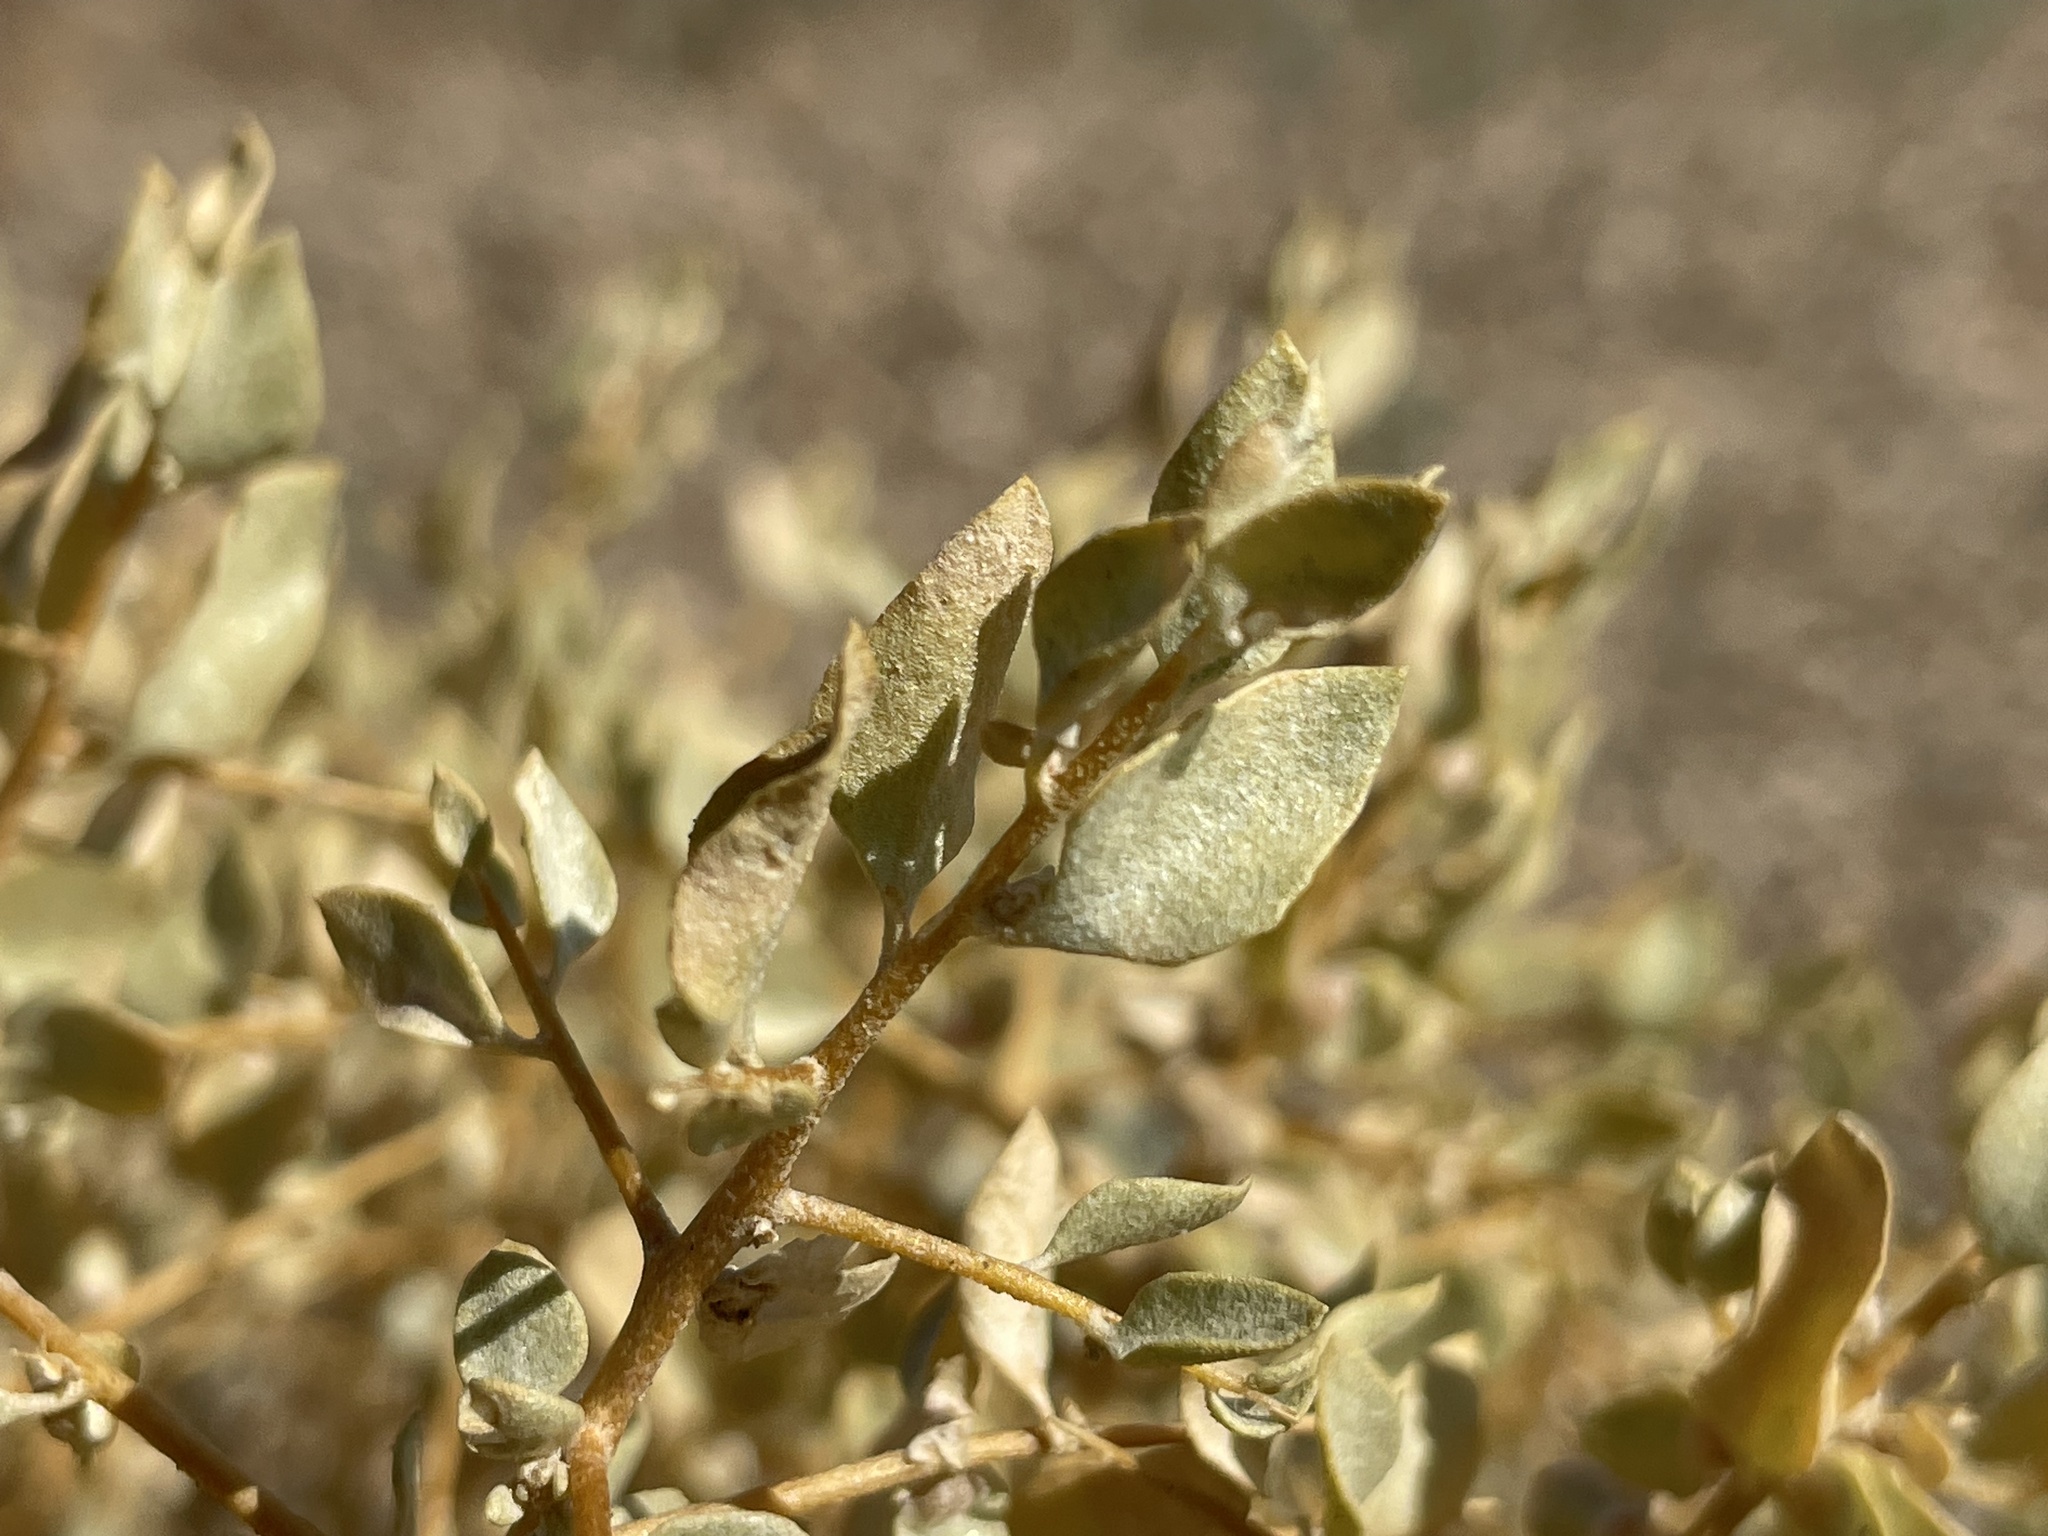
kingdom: Plantae
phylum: Tracheophyta
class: Magnoliopsida
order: Caryophyllales
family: Amaranthaceae
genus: Atriplex
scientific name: Atriplex confertifolia
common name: Shadscale
